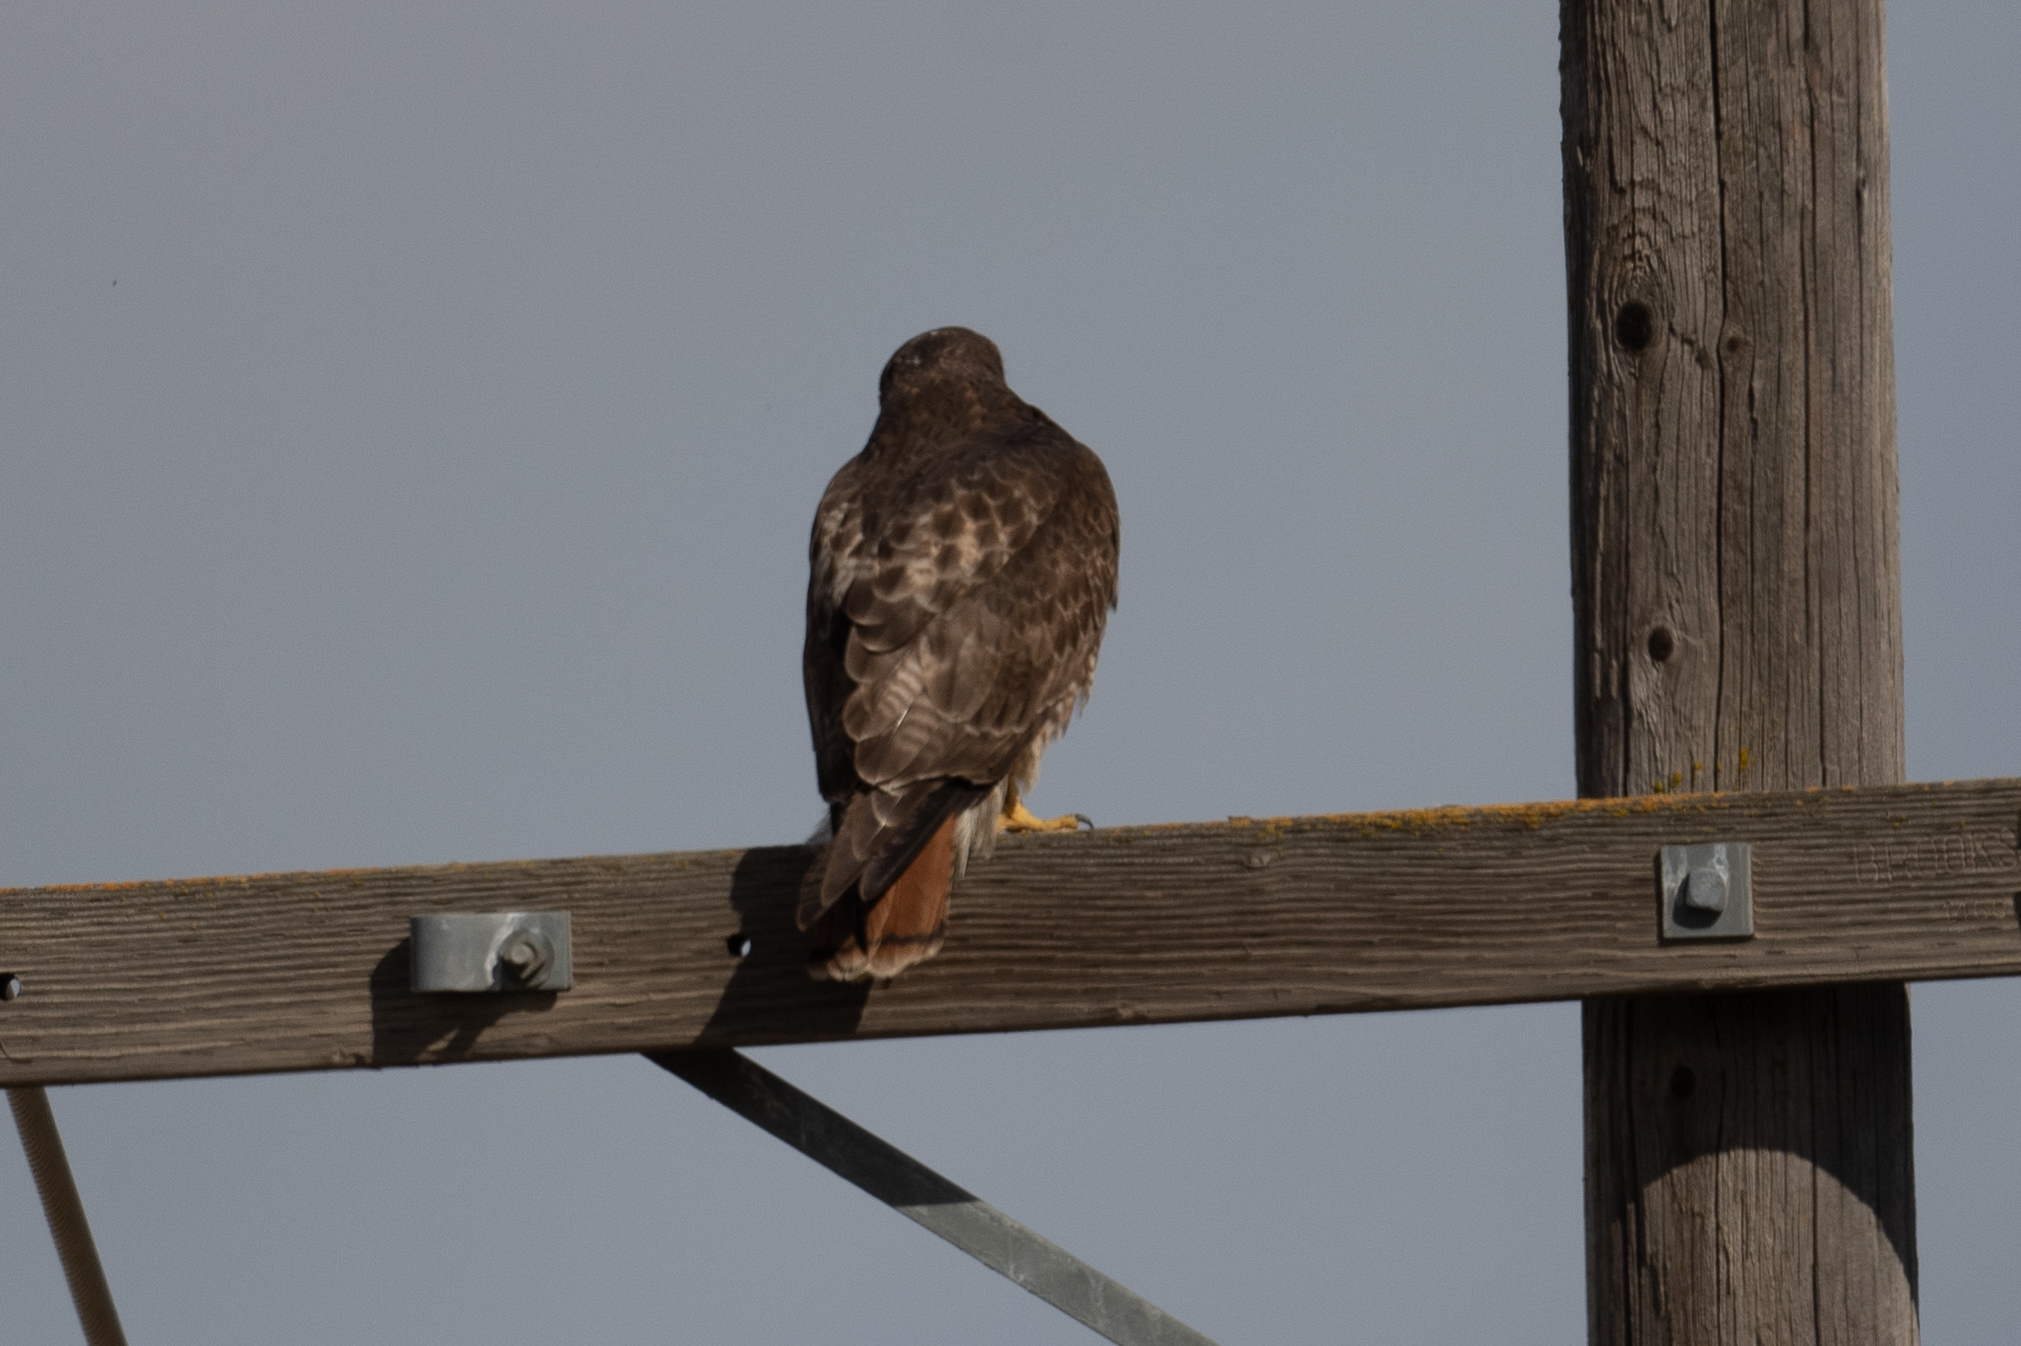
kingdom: Animalia
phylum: Chordata
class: Aves
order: Accipitriformes
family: Accipitridae
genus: Buteo
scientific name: Buteo jamaicensis
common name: Red-tailed hawk
